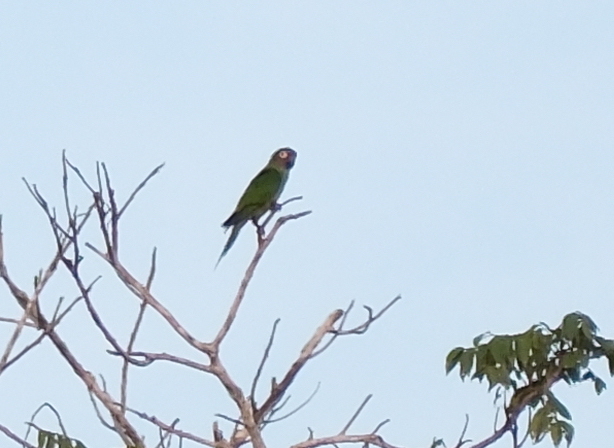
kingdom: Animalia
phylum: Chordata
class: Aves
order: Psittaciformes
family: Psittacidae
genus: Aratinga
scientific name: Aratinga weddellii
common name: Dusky-headed parakeet
